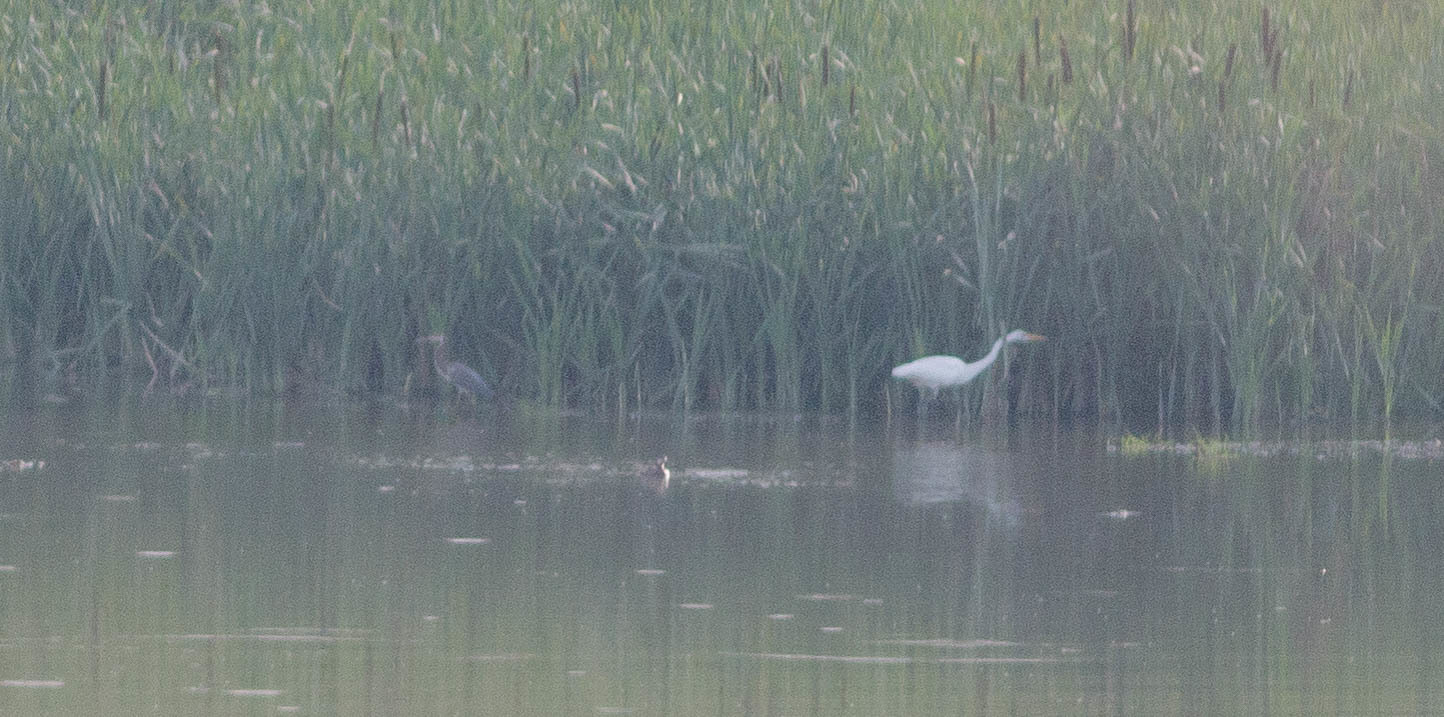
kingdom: Animalia
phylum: Chordata
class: Aves
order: Pelecaniformes
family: Ardeidae
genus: Ardea
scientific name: Ardea alba
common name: Great egret
